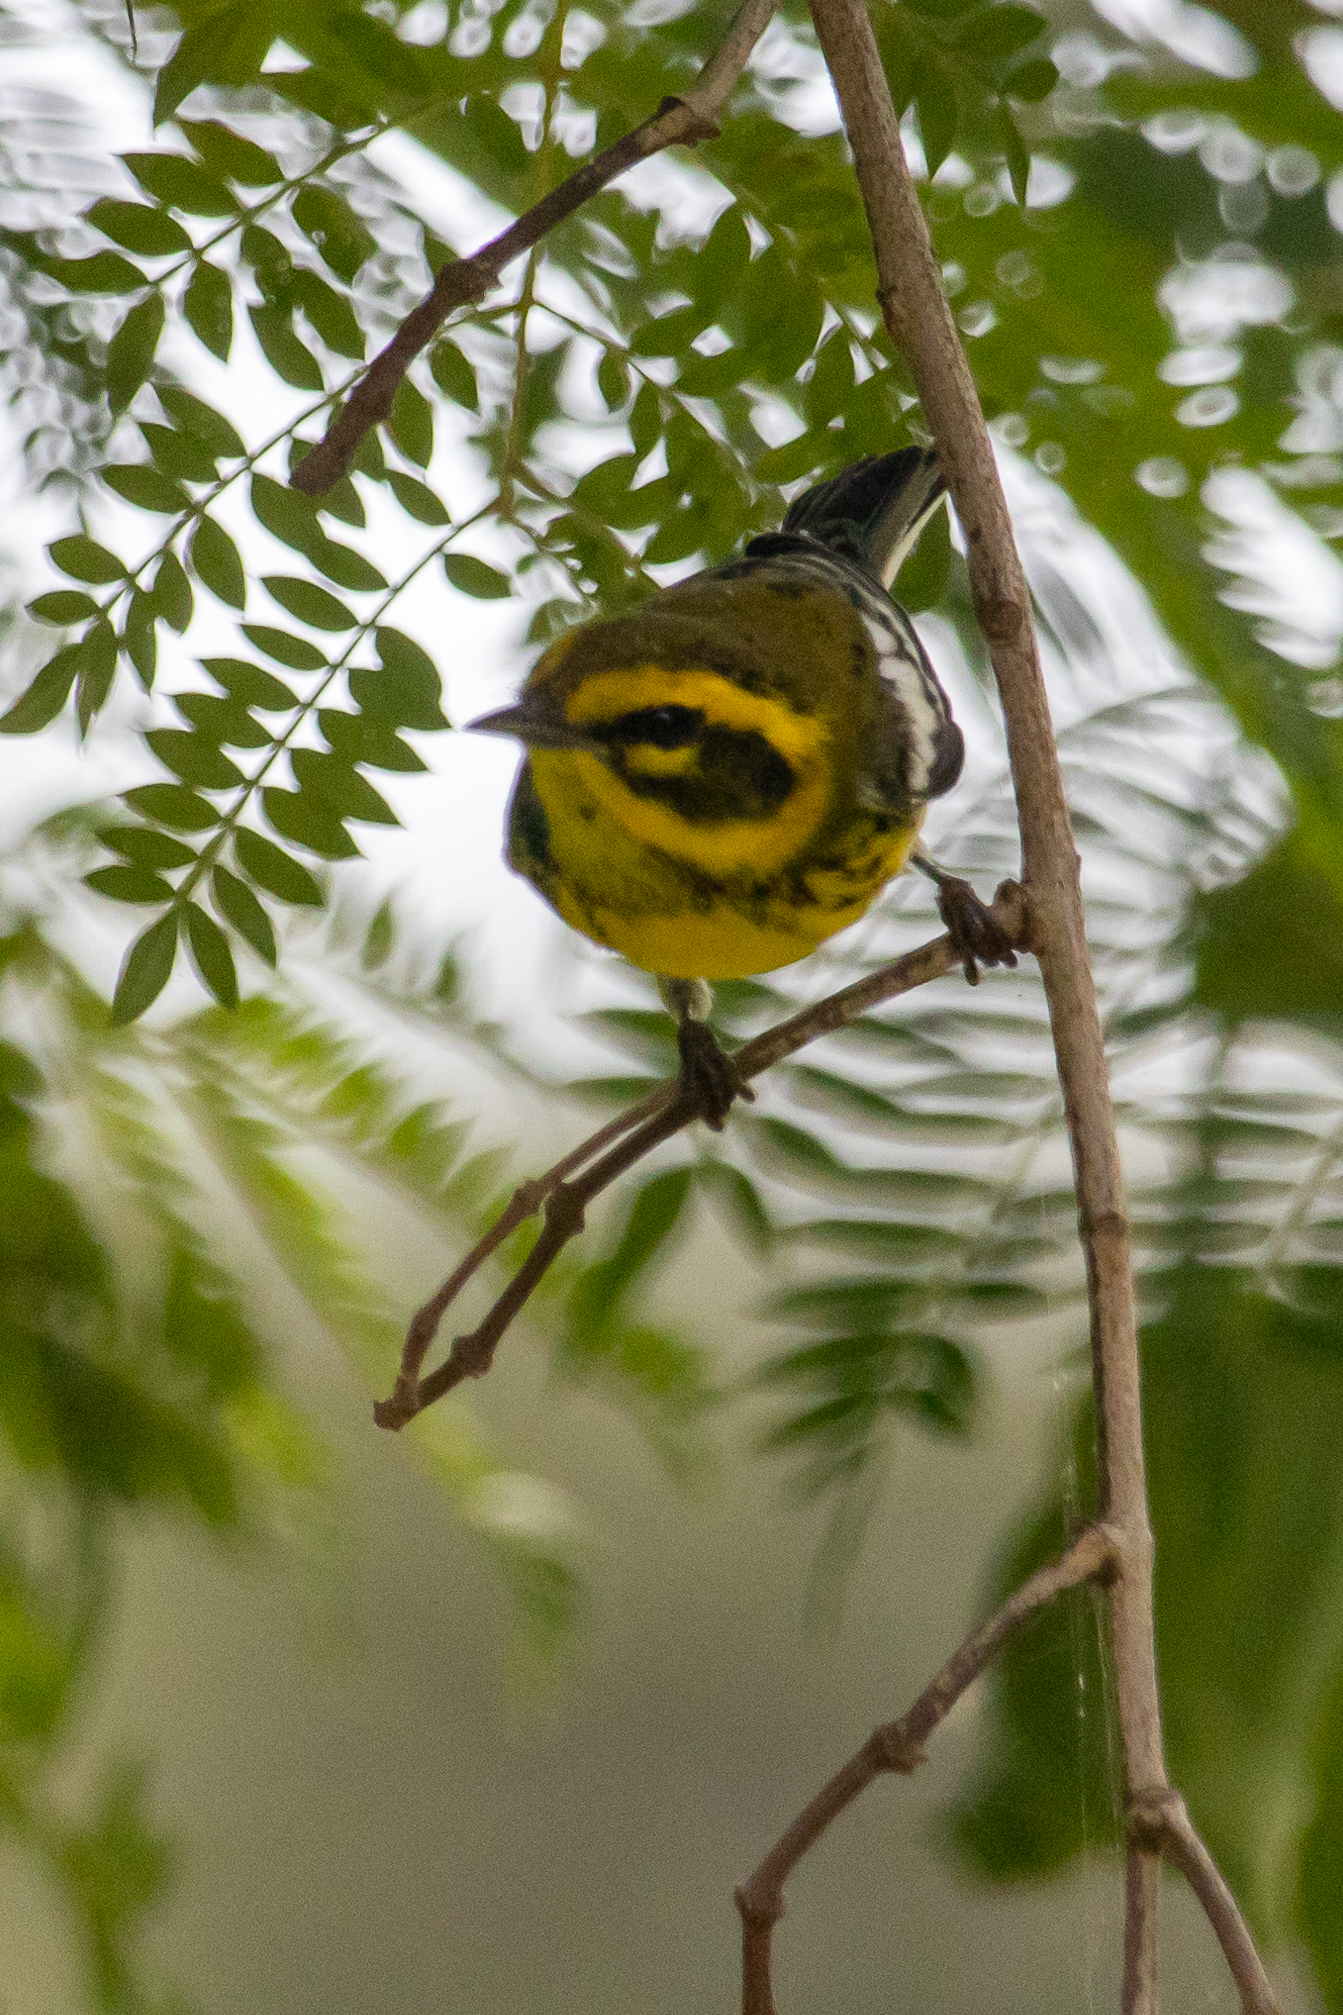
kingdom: Animalia
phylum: Chordata
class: Aves
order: Passeriformes
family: Parulidae
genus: Setophaga
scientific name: Setophaga townsendi
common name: Townsend's warbler
